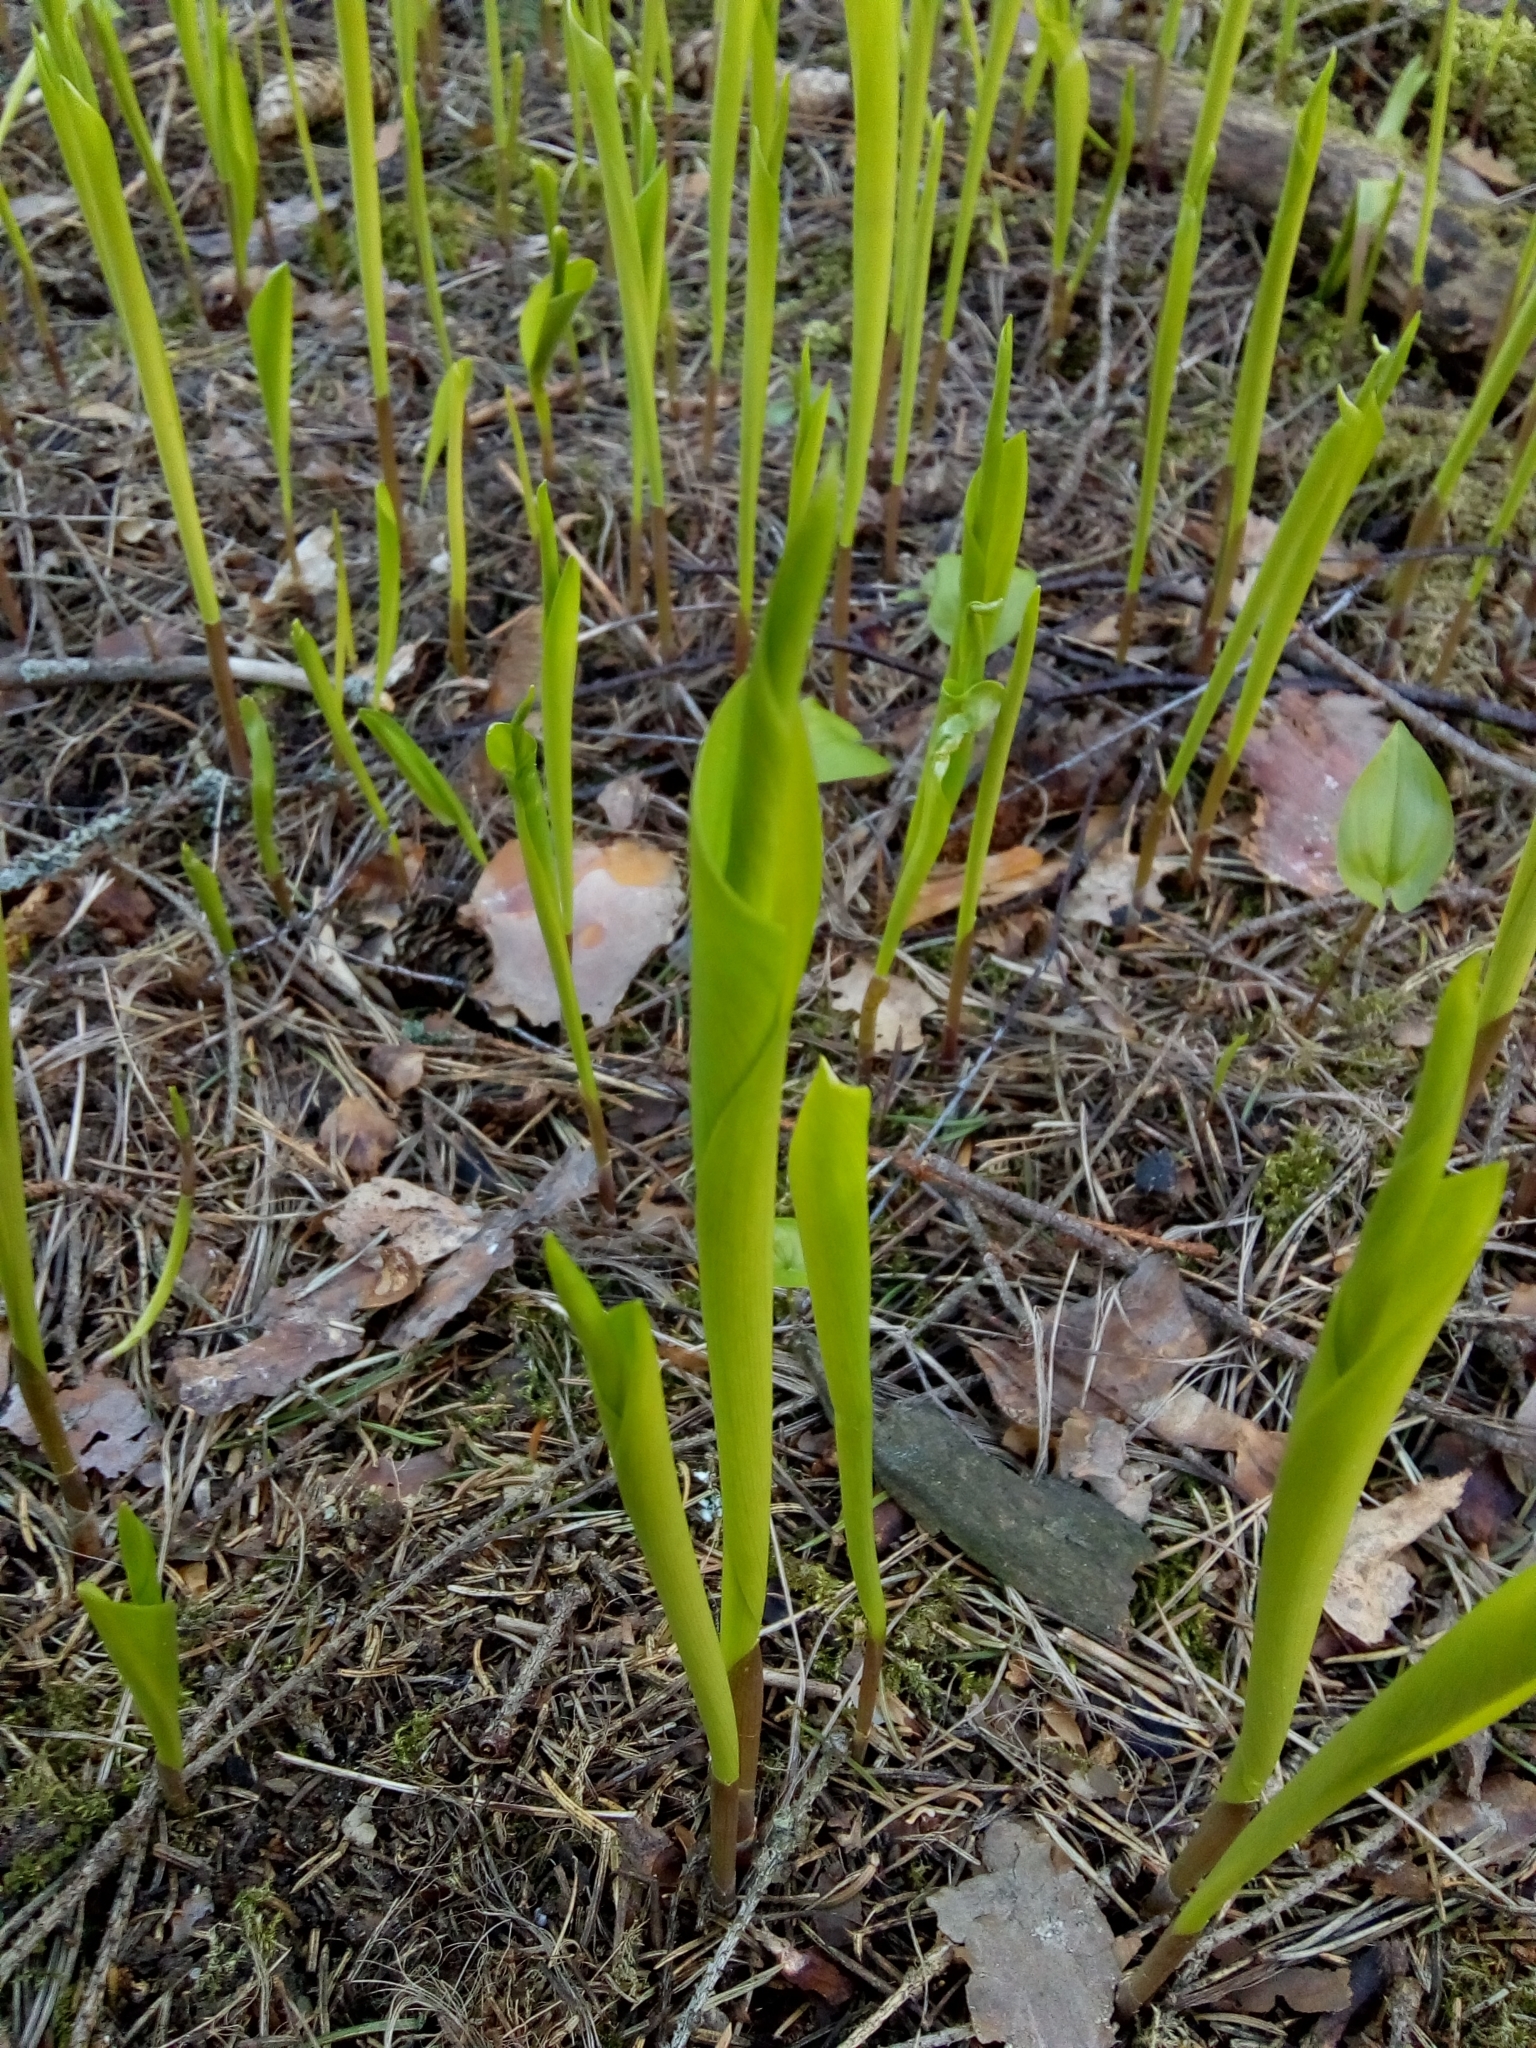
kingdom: Plantae
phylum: Tracheophyta
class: Liliopsida
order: Asparagales
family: Asparagaceae
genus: Convallaria
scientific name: Convallaria majalis
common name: Lily-of-the-valley
